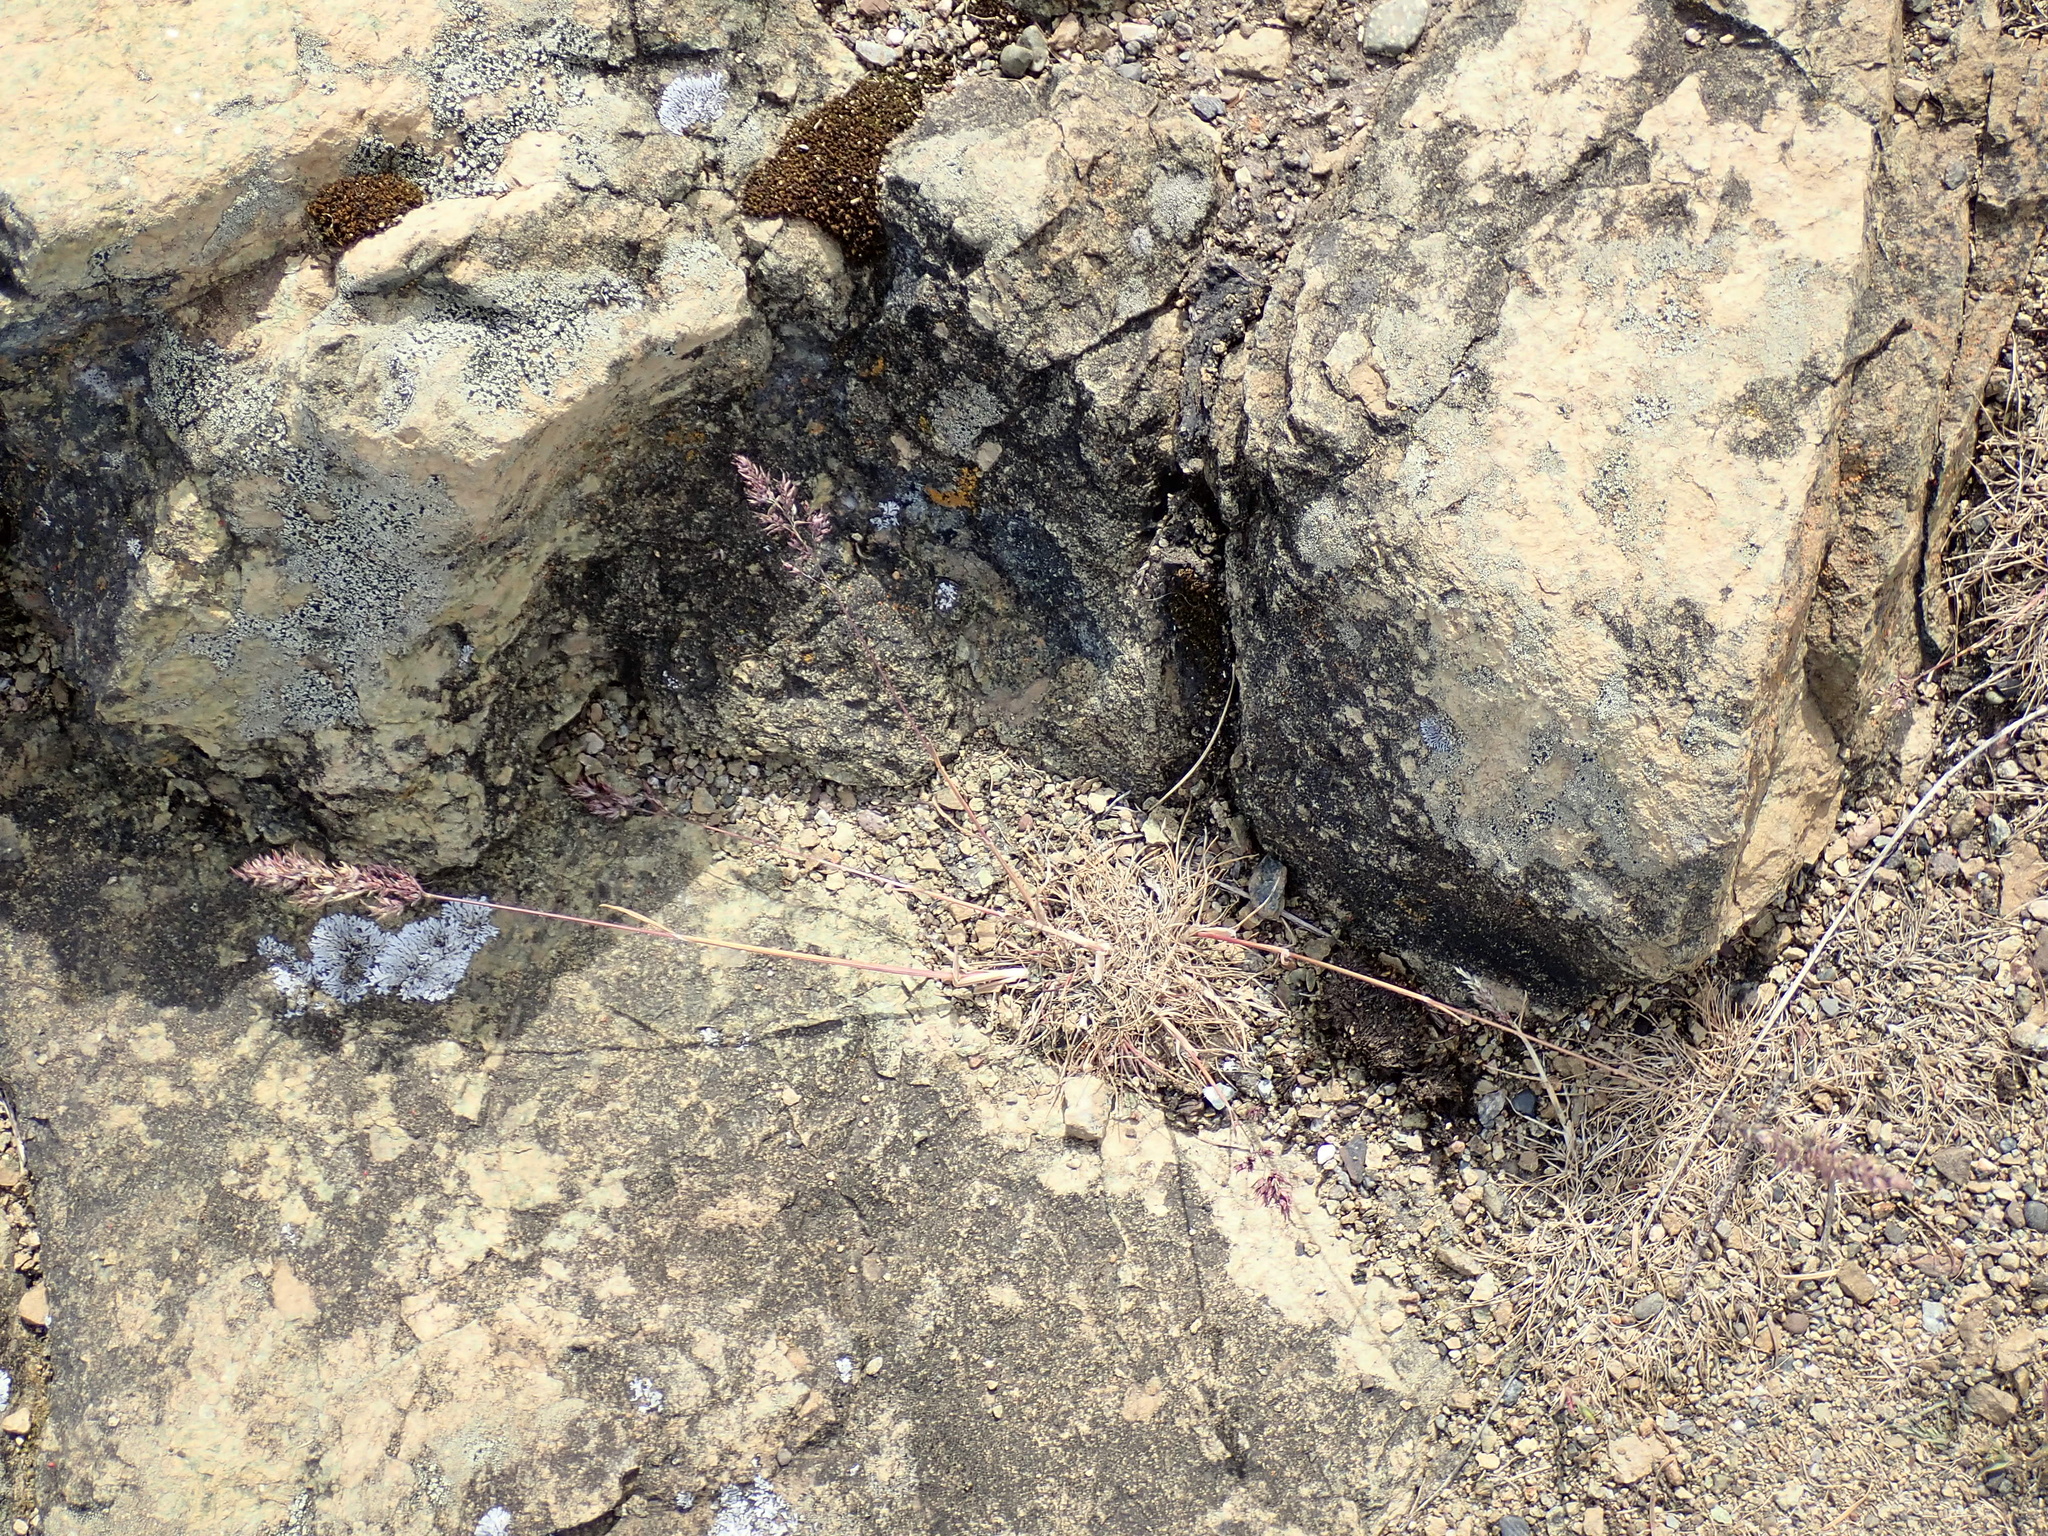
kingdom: Plantae
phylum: Tracheophyta
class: Liliopsida
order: Poales
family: Poaceae
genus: Poa
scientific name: Poa bulbosa
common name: Bulbous bluegrass
